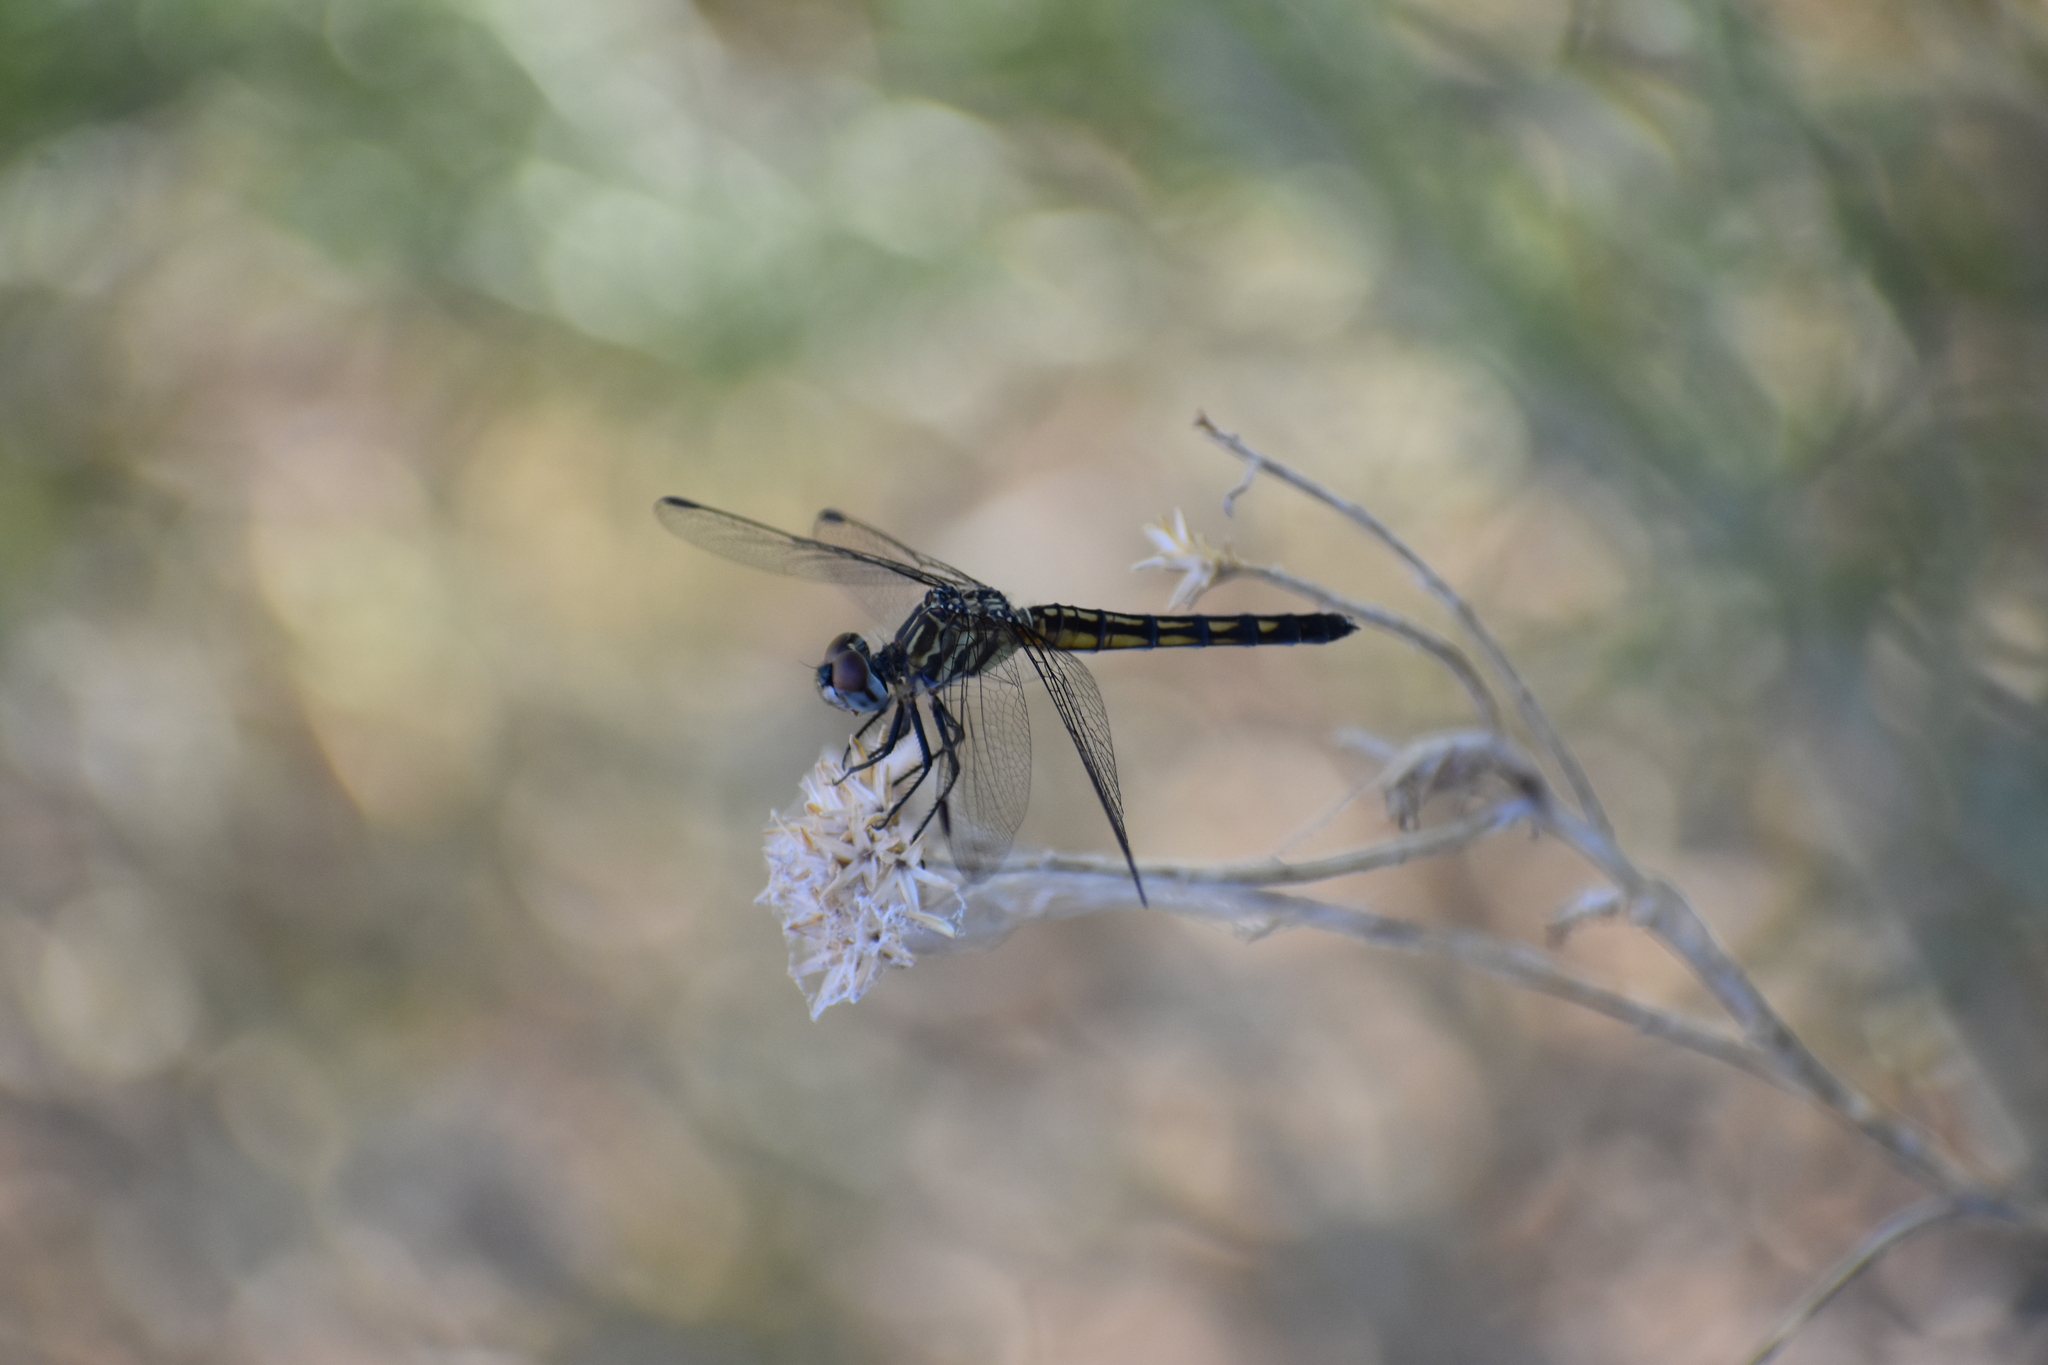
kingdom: Animalia
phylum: Arthropoda
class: Insecta
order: Odonata
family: Libellulidae
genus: Pachydiplax
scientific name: Pachydiplax longipennis
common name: Blue dasher
